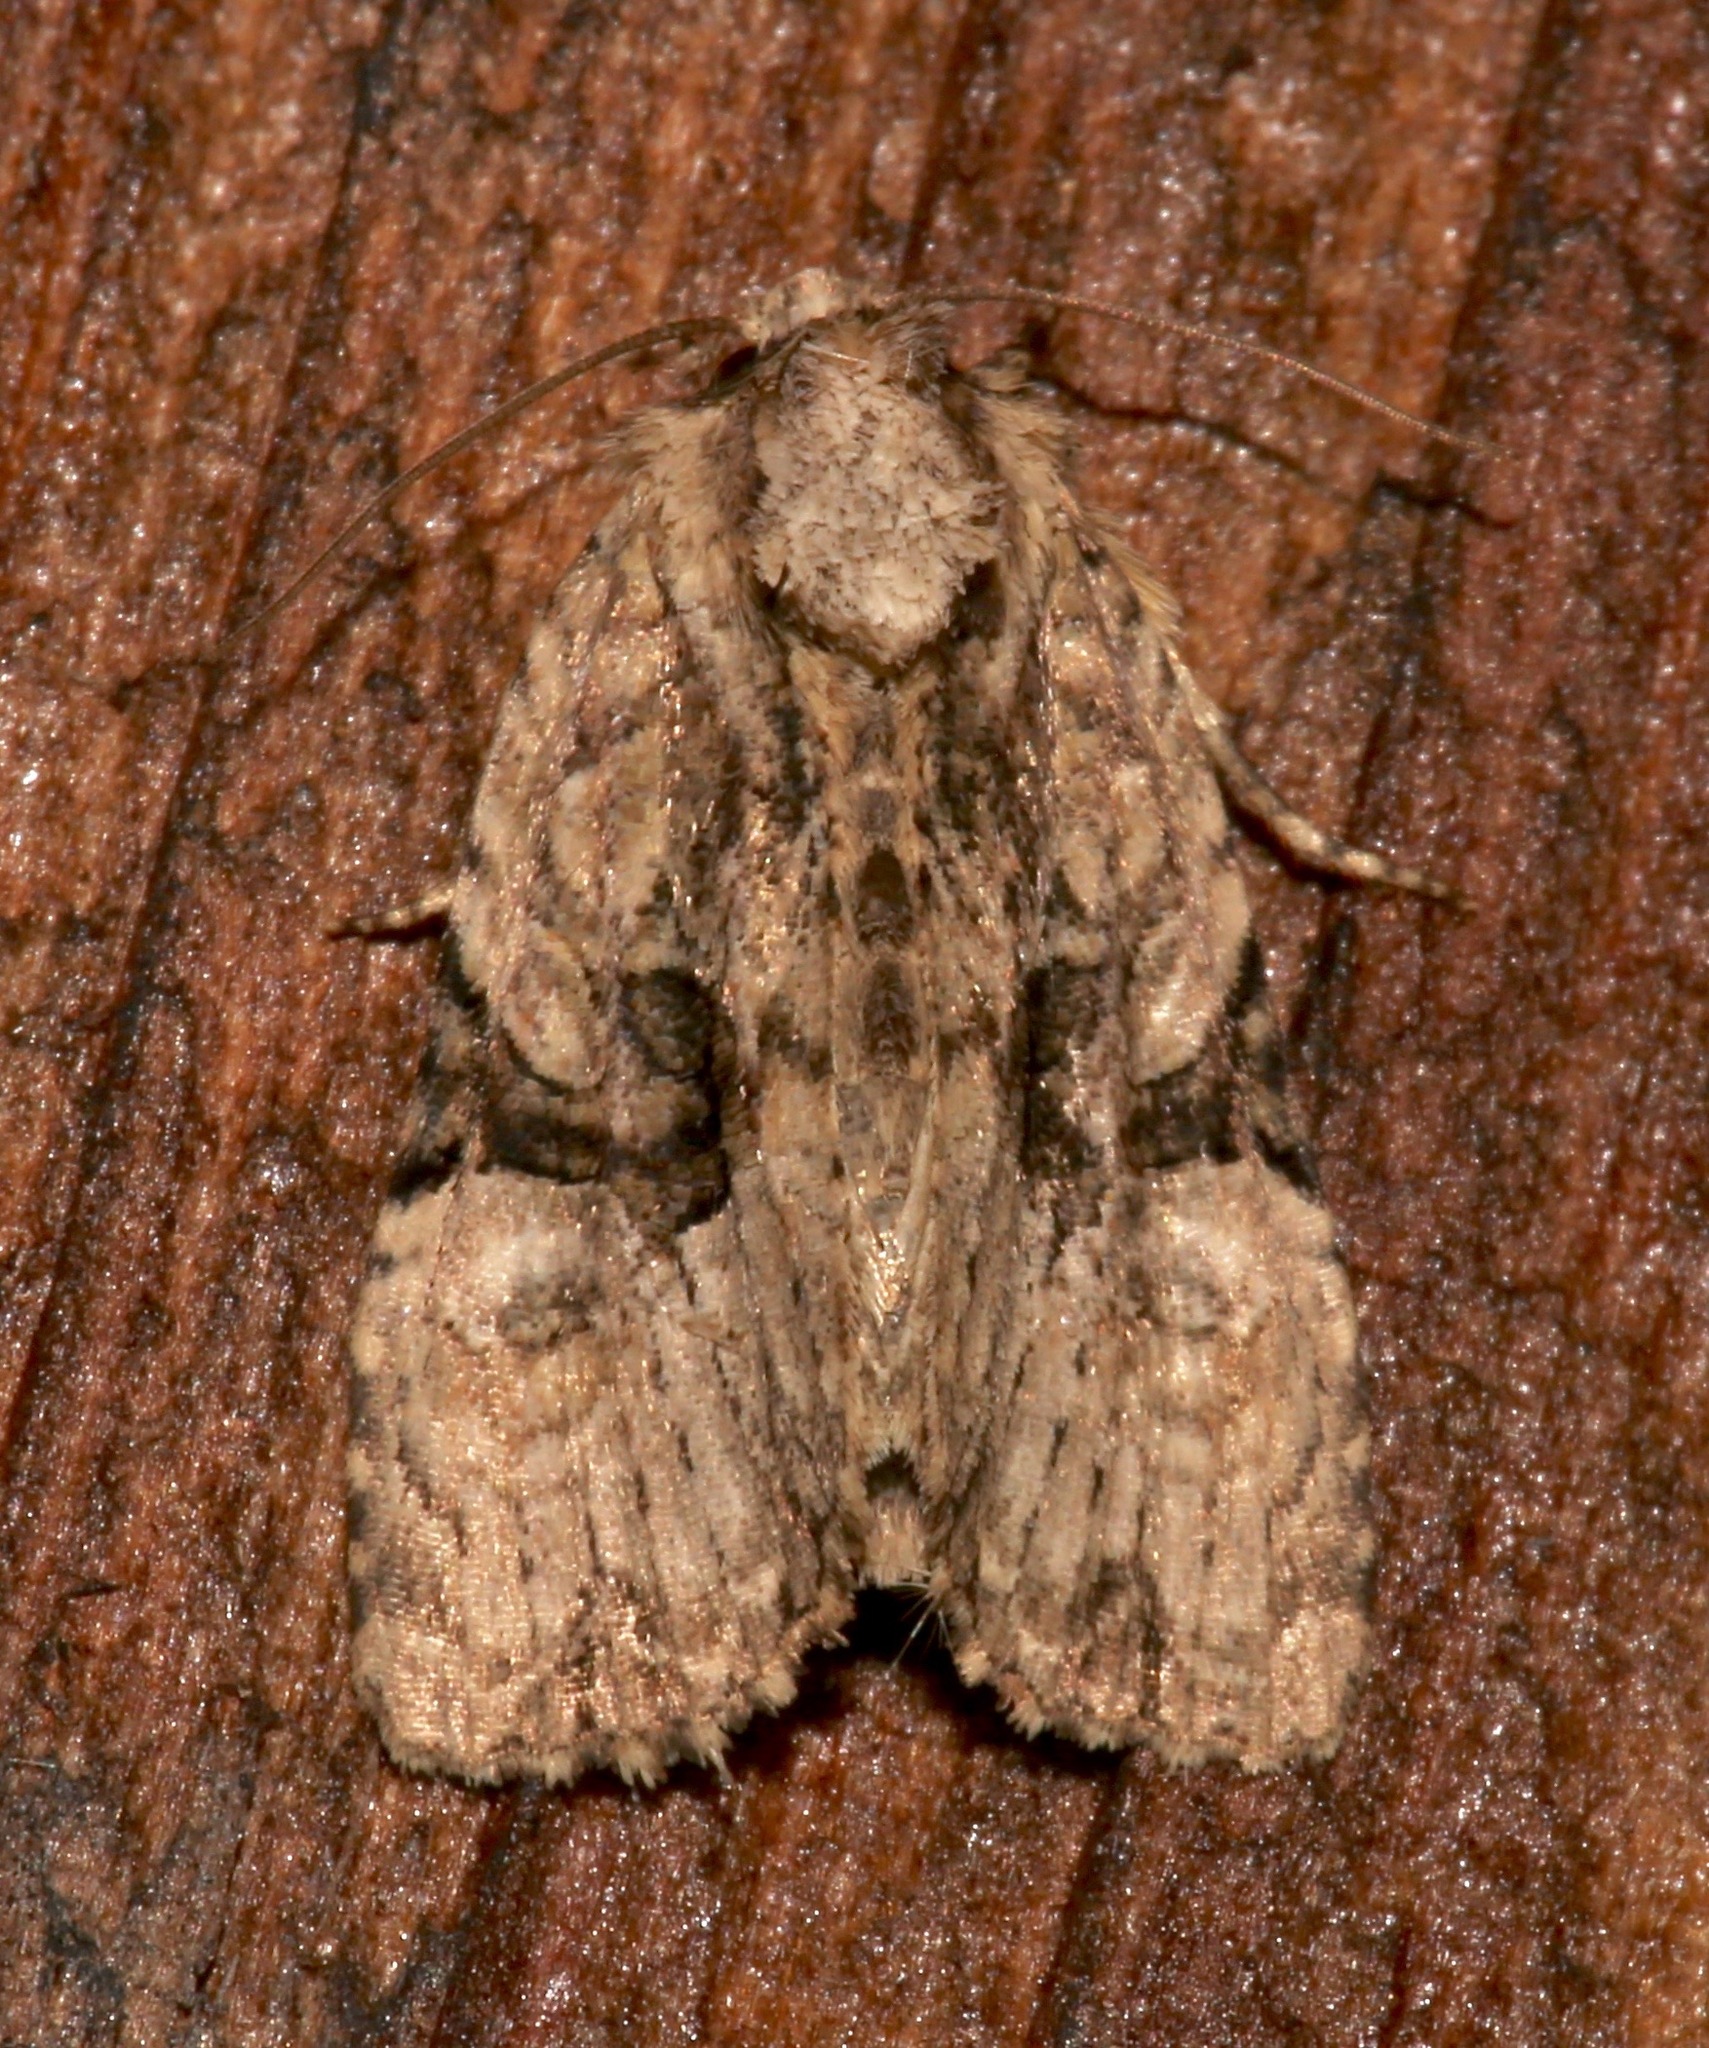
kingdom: Animalia
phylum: Arthropoda
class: Insecta
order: Lepidoptera
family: Noctuidae
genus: Oligia
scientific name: Oligia modica
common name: Black-banded brocade
